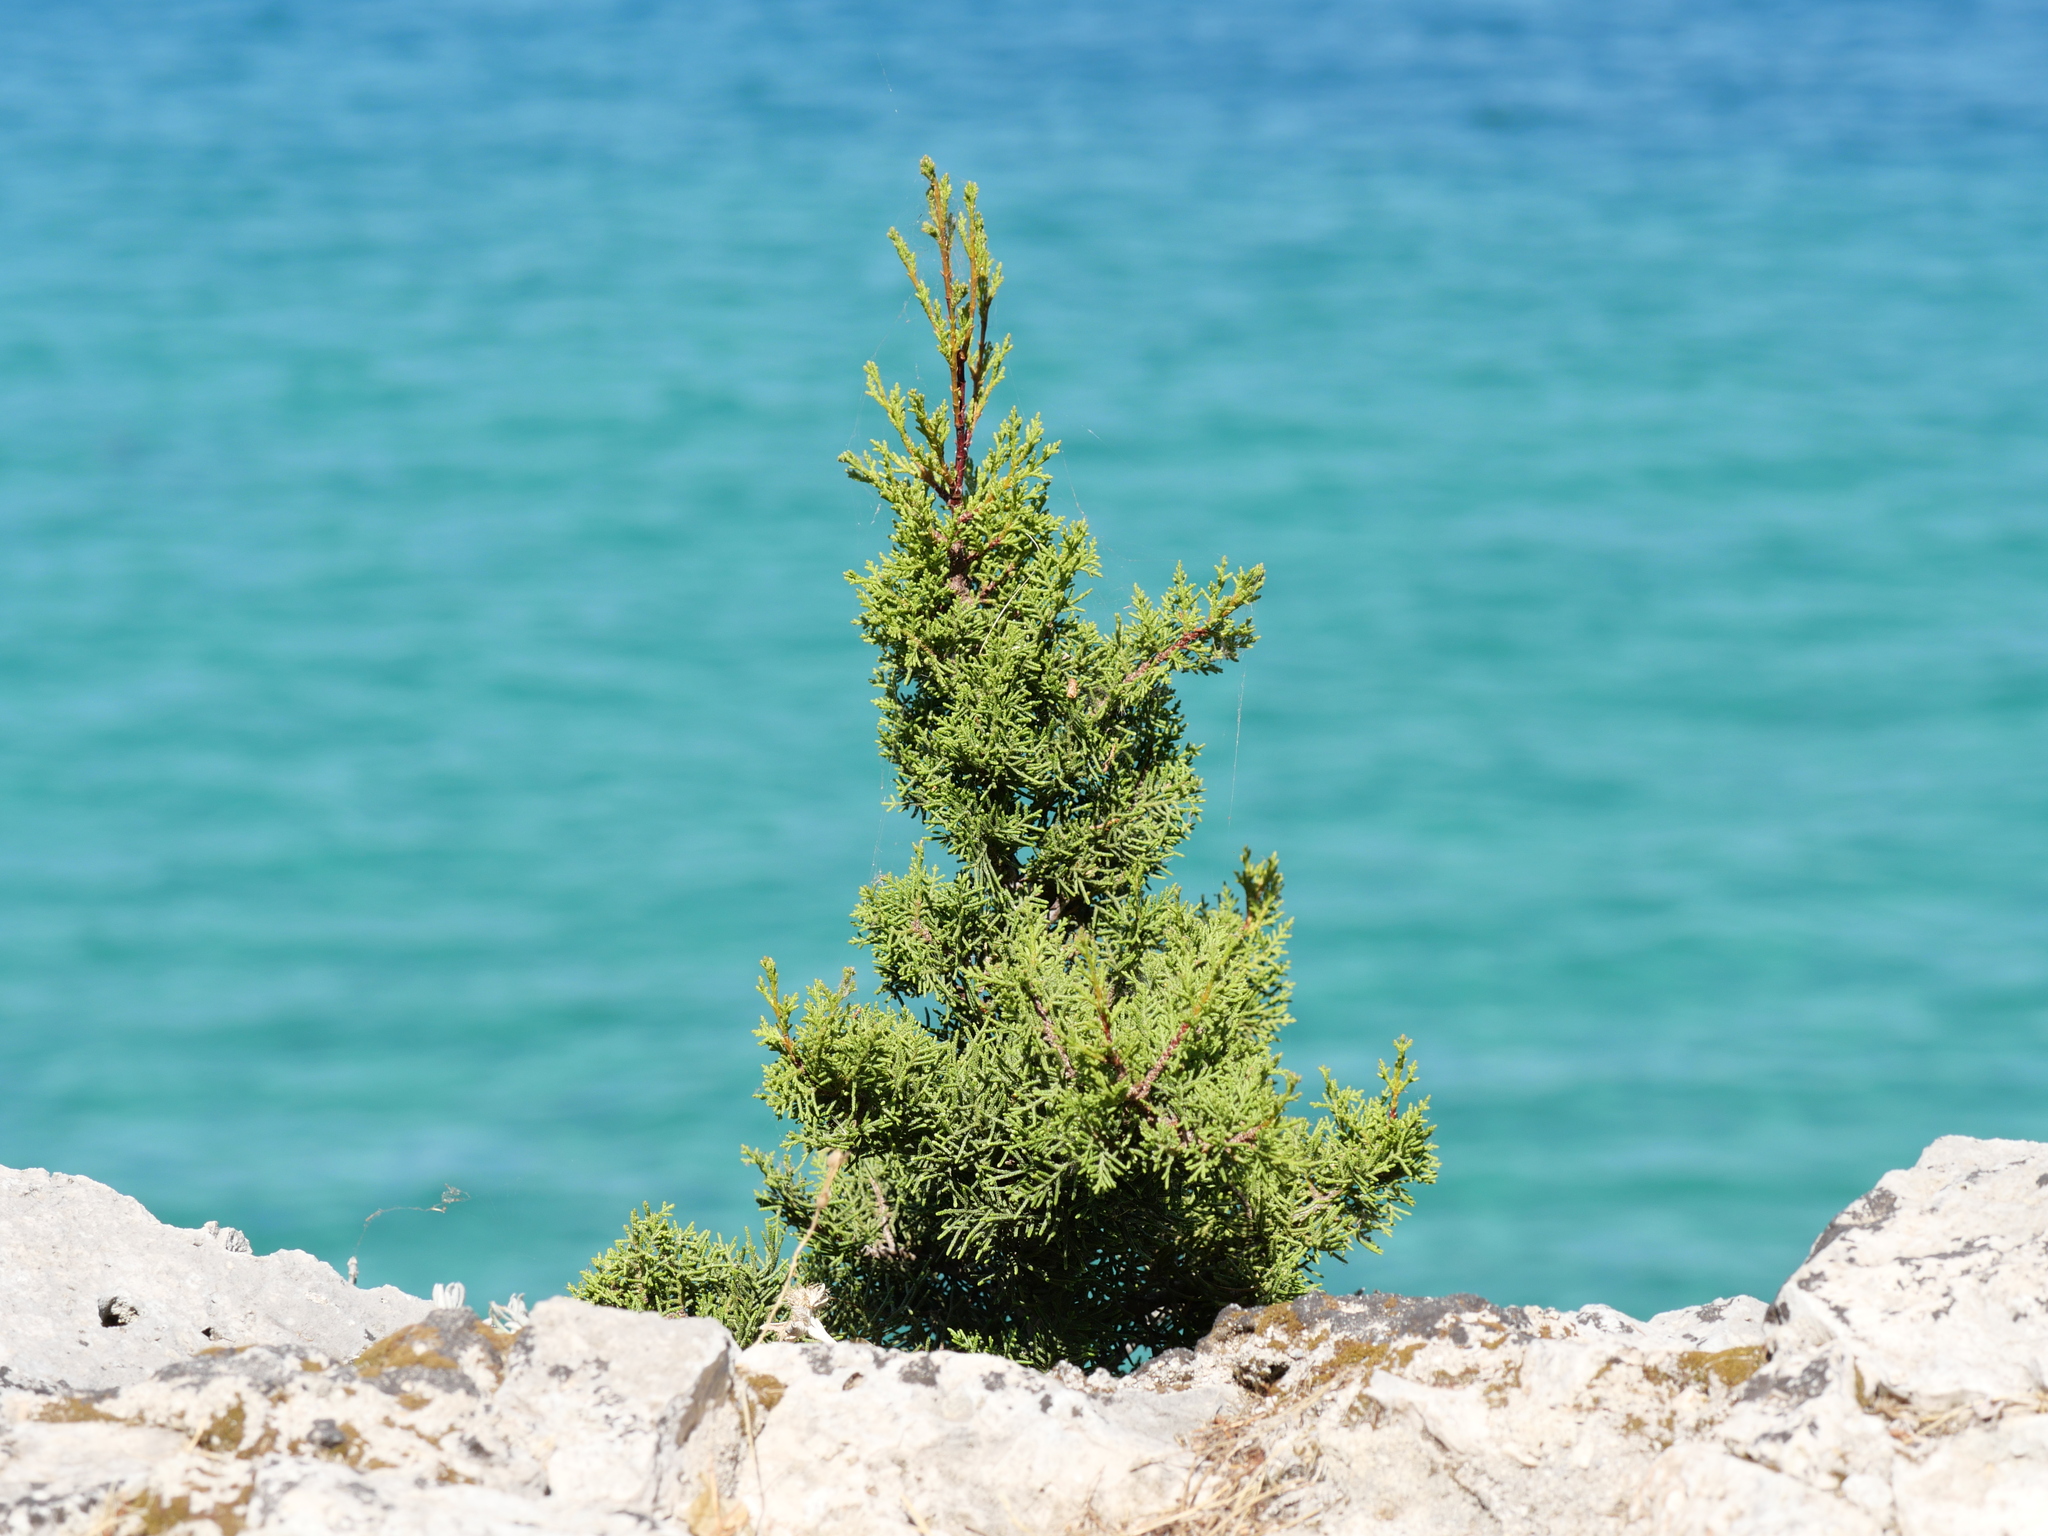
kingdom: Plantae
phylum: Tracheophyta
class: Pinopsida
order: Pinales
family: Cupressaceae
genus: Juniperus
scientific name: Juniperus phoenicea
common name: Phoenician juniper
